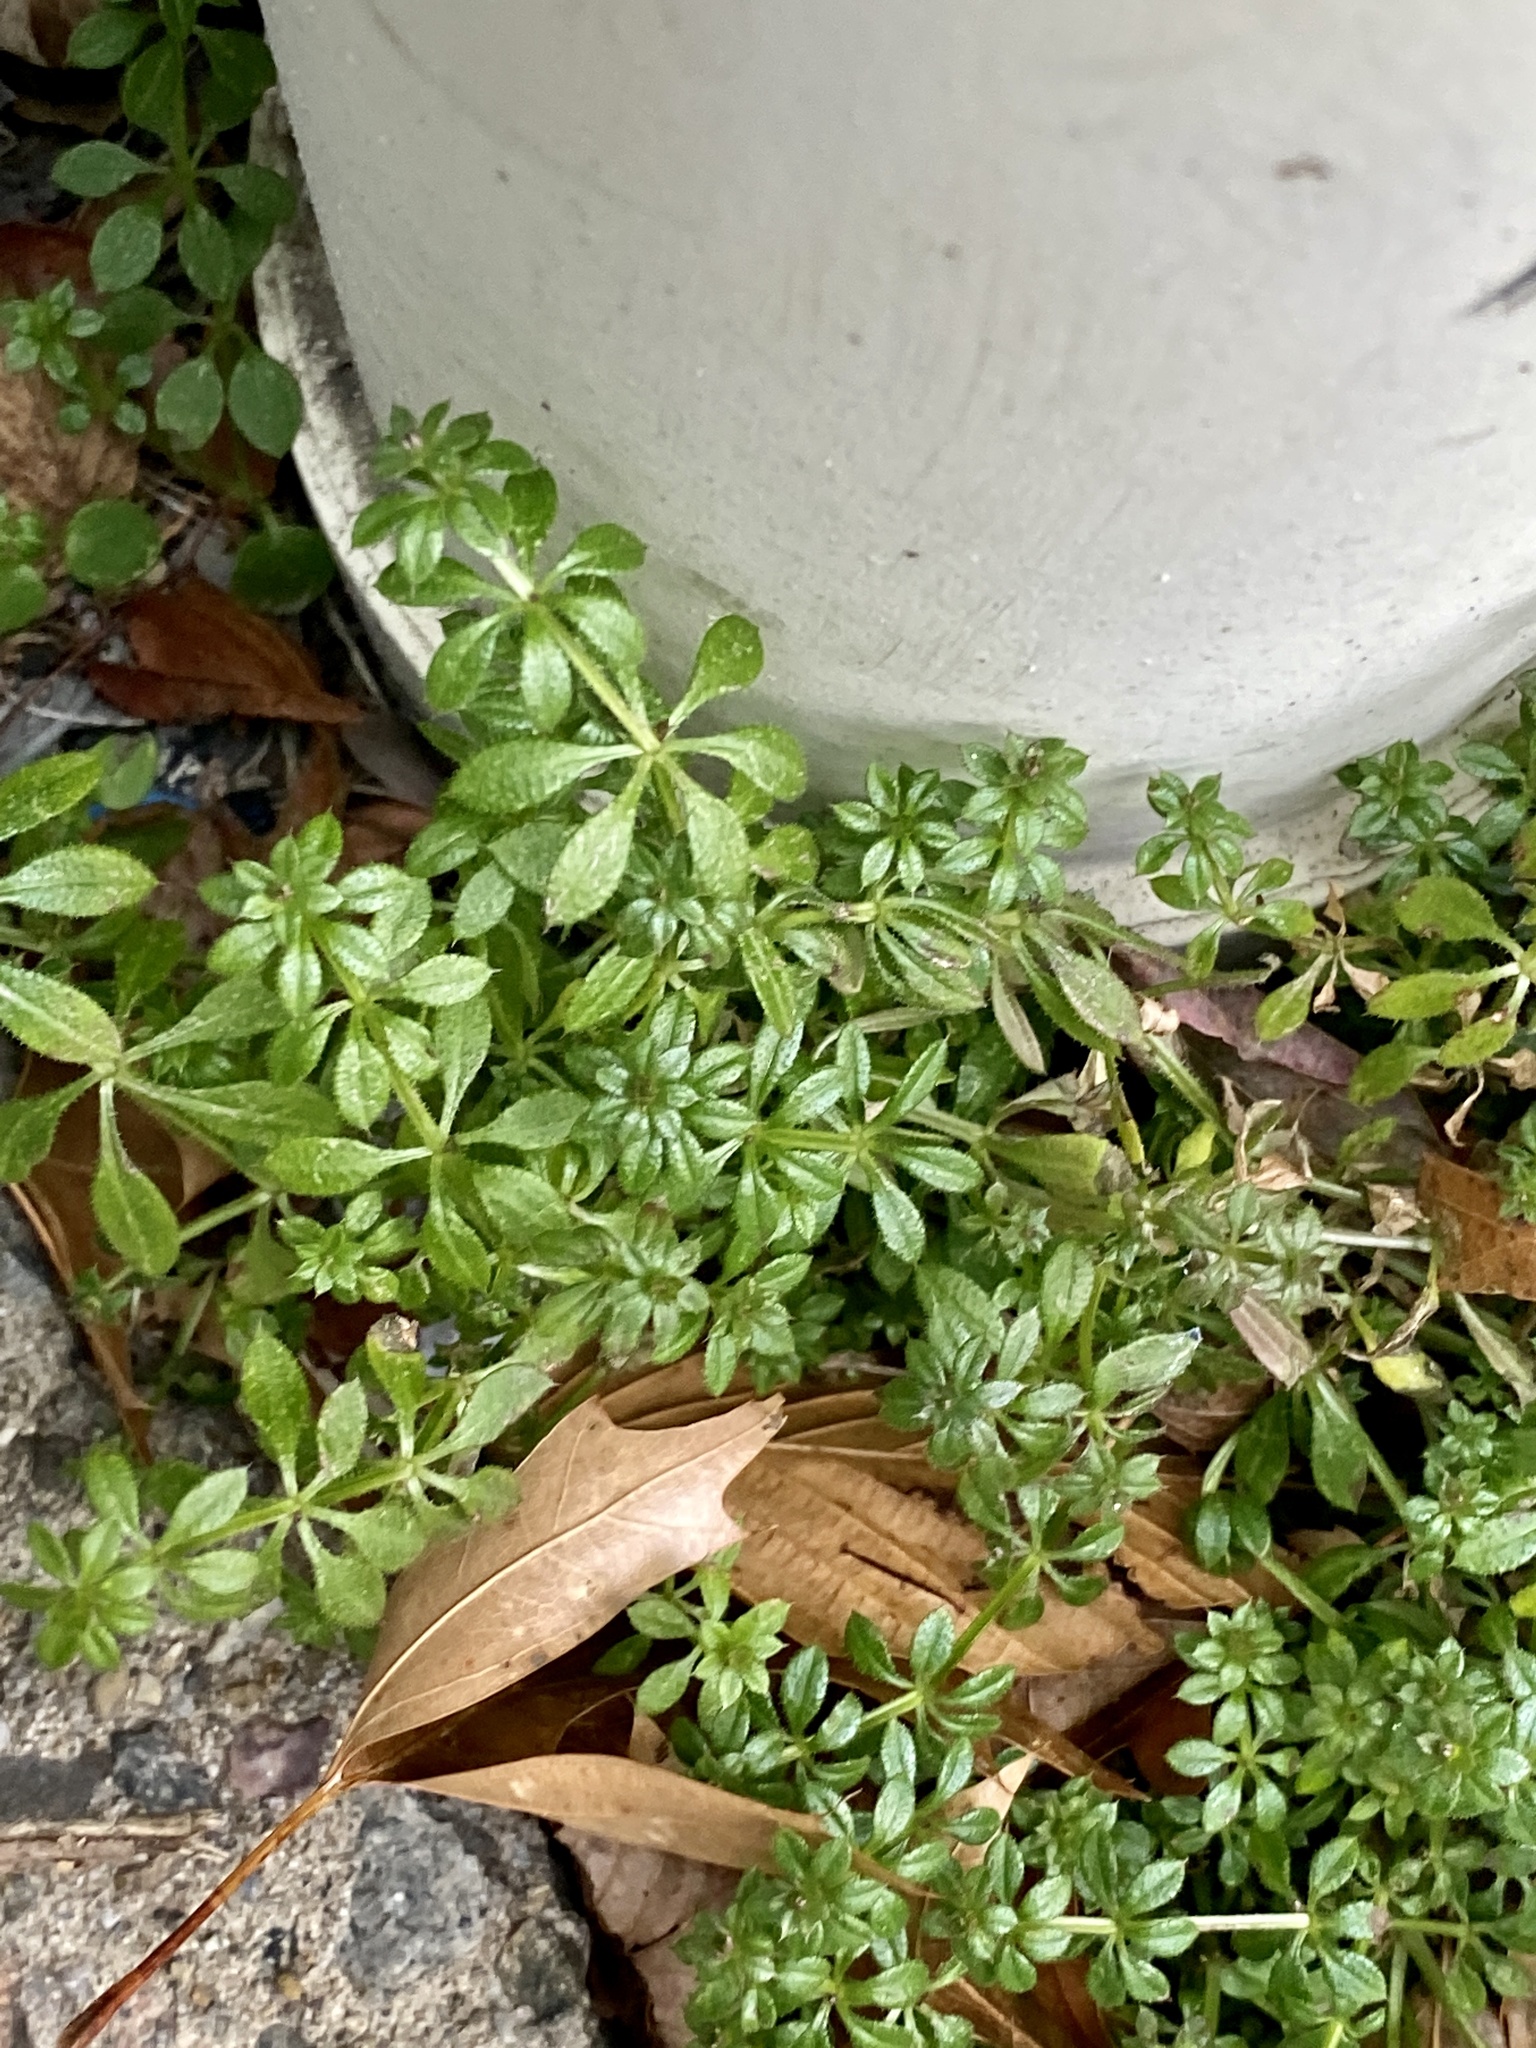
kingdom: Plantae
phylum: Tracheophyta
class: Magnoliopsida
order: Gentianales
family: Rubiaceae
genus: Galium
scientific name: Galium aparine
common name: Cleavers
